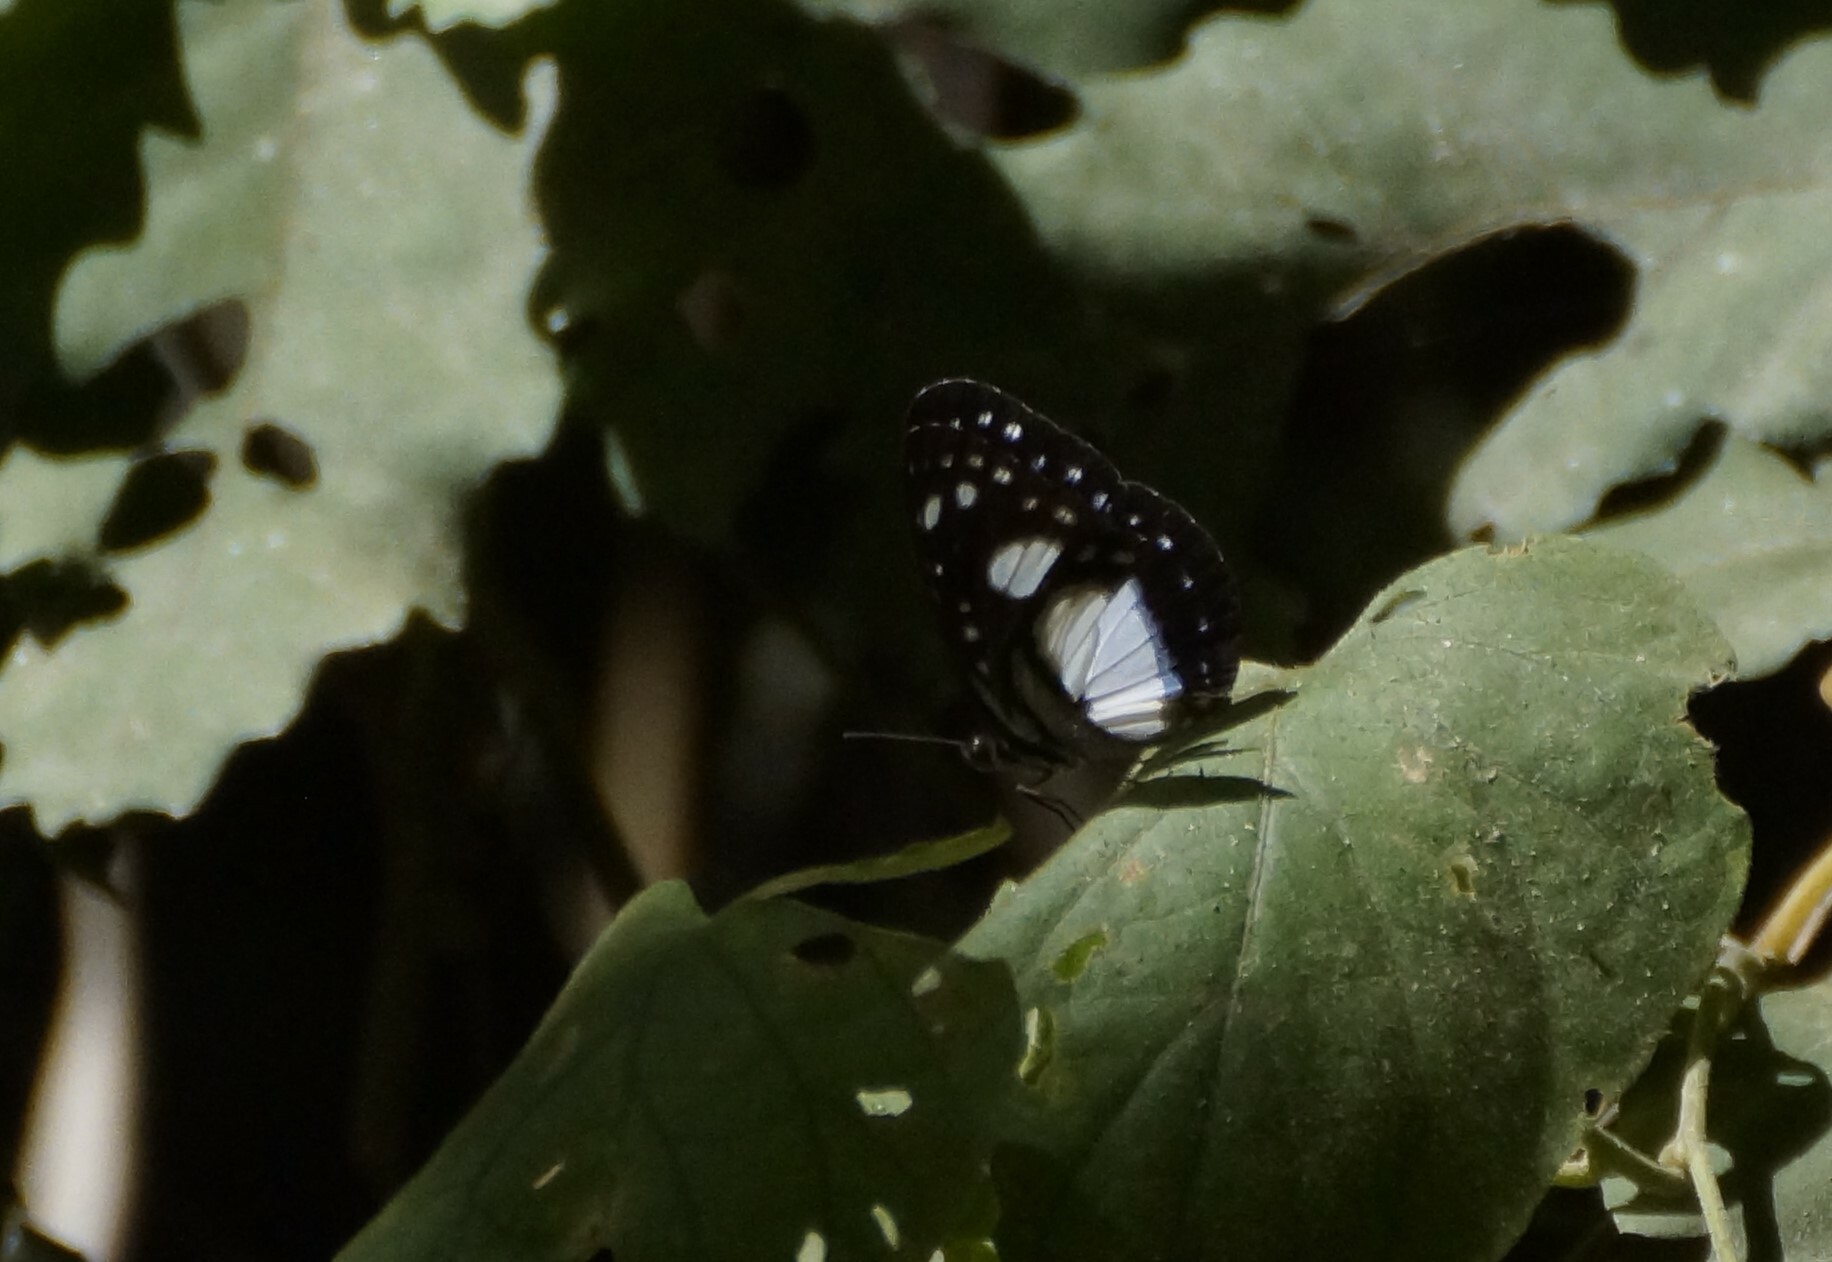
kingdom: Animalia
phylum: Arthropoda
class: Insecta
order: Lepidoptera
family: Nymphalidae
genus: Pantoporia
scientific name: Pantoporia venilia
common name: Cape york aeroplane
